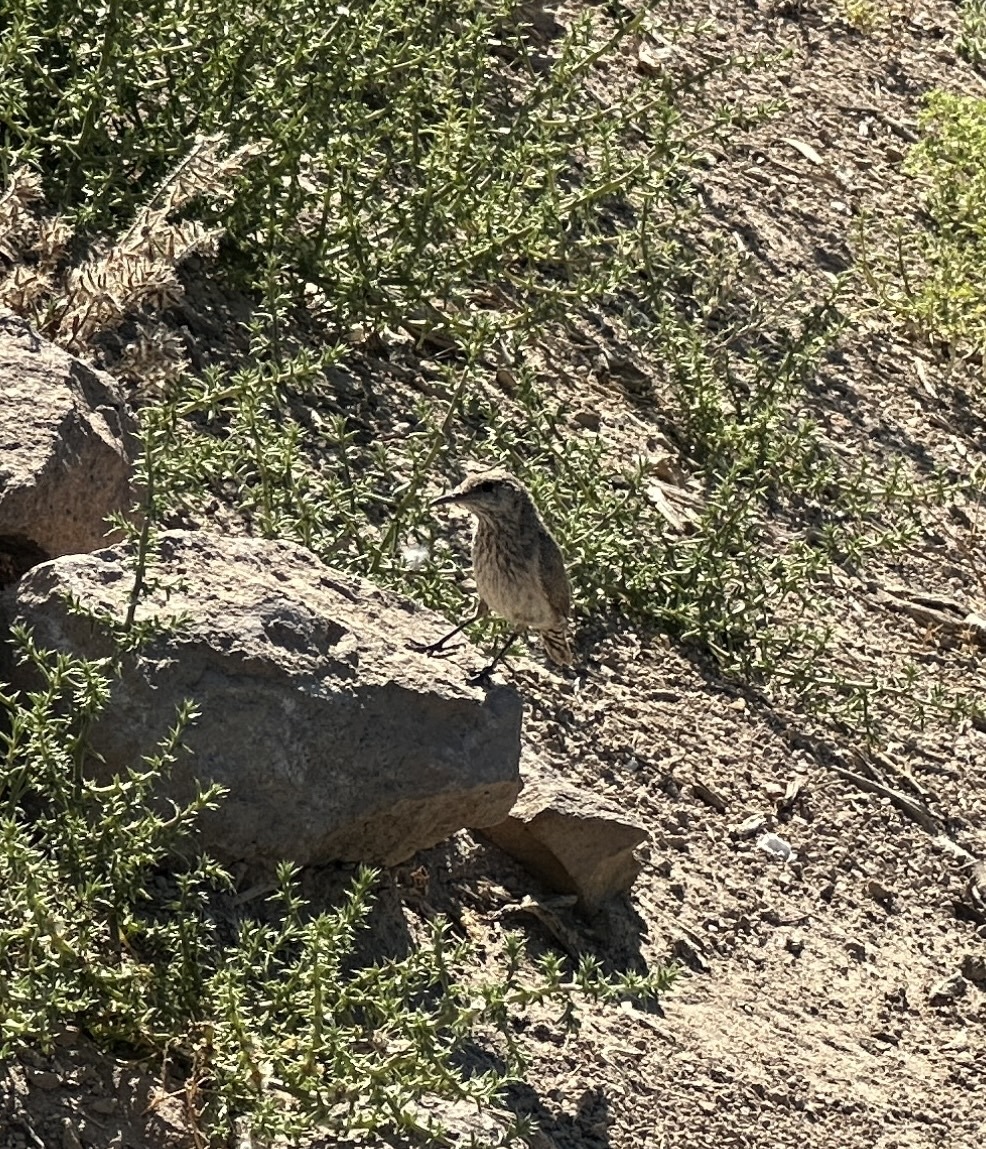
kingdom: Animalia
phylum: Chordata
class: Aves
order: Passeriformes
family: Troglodytidae
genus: Salpinctes
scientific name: Salpinctes obsoletus
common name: Rock wren
